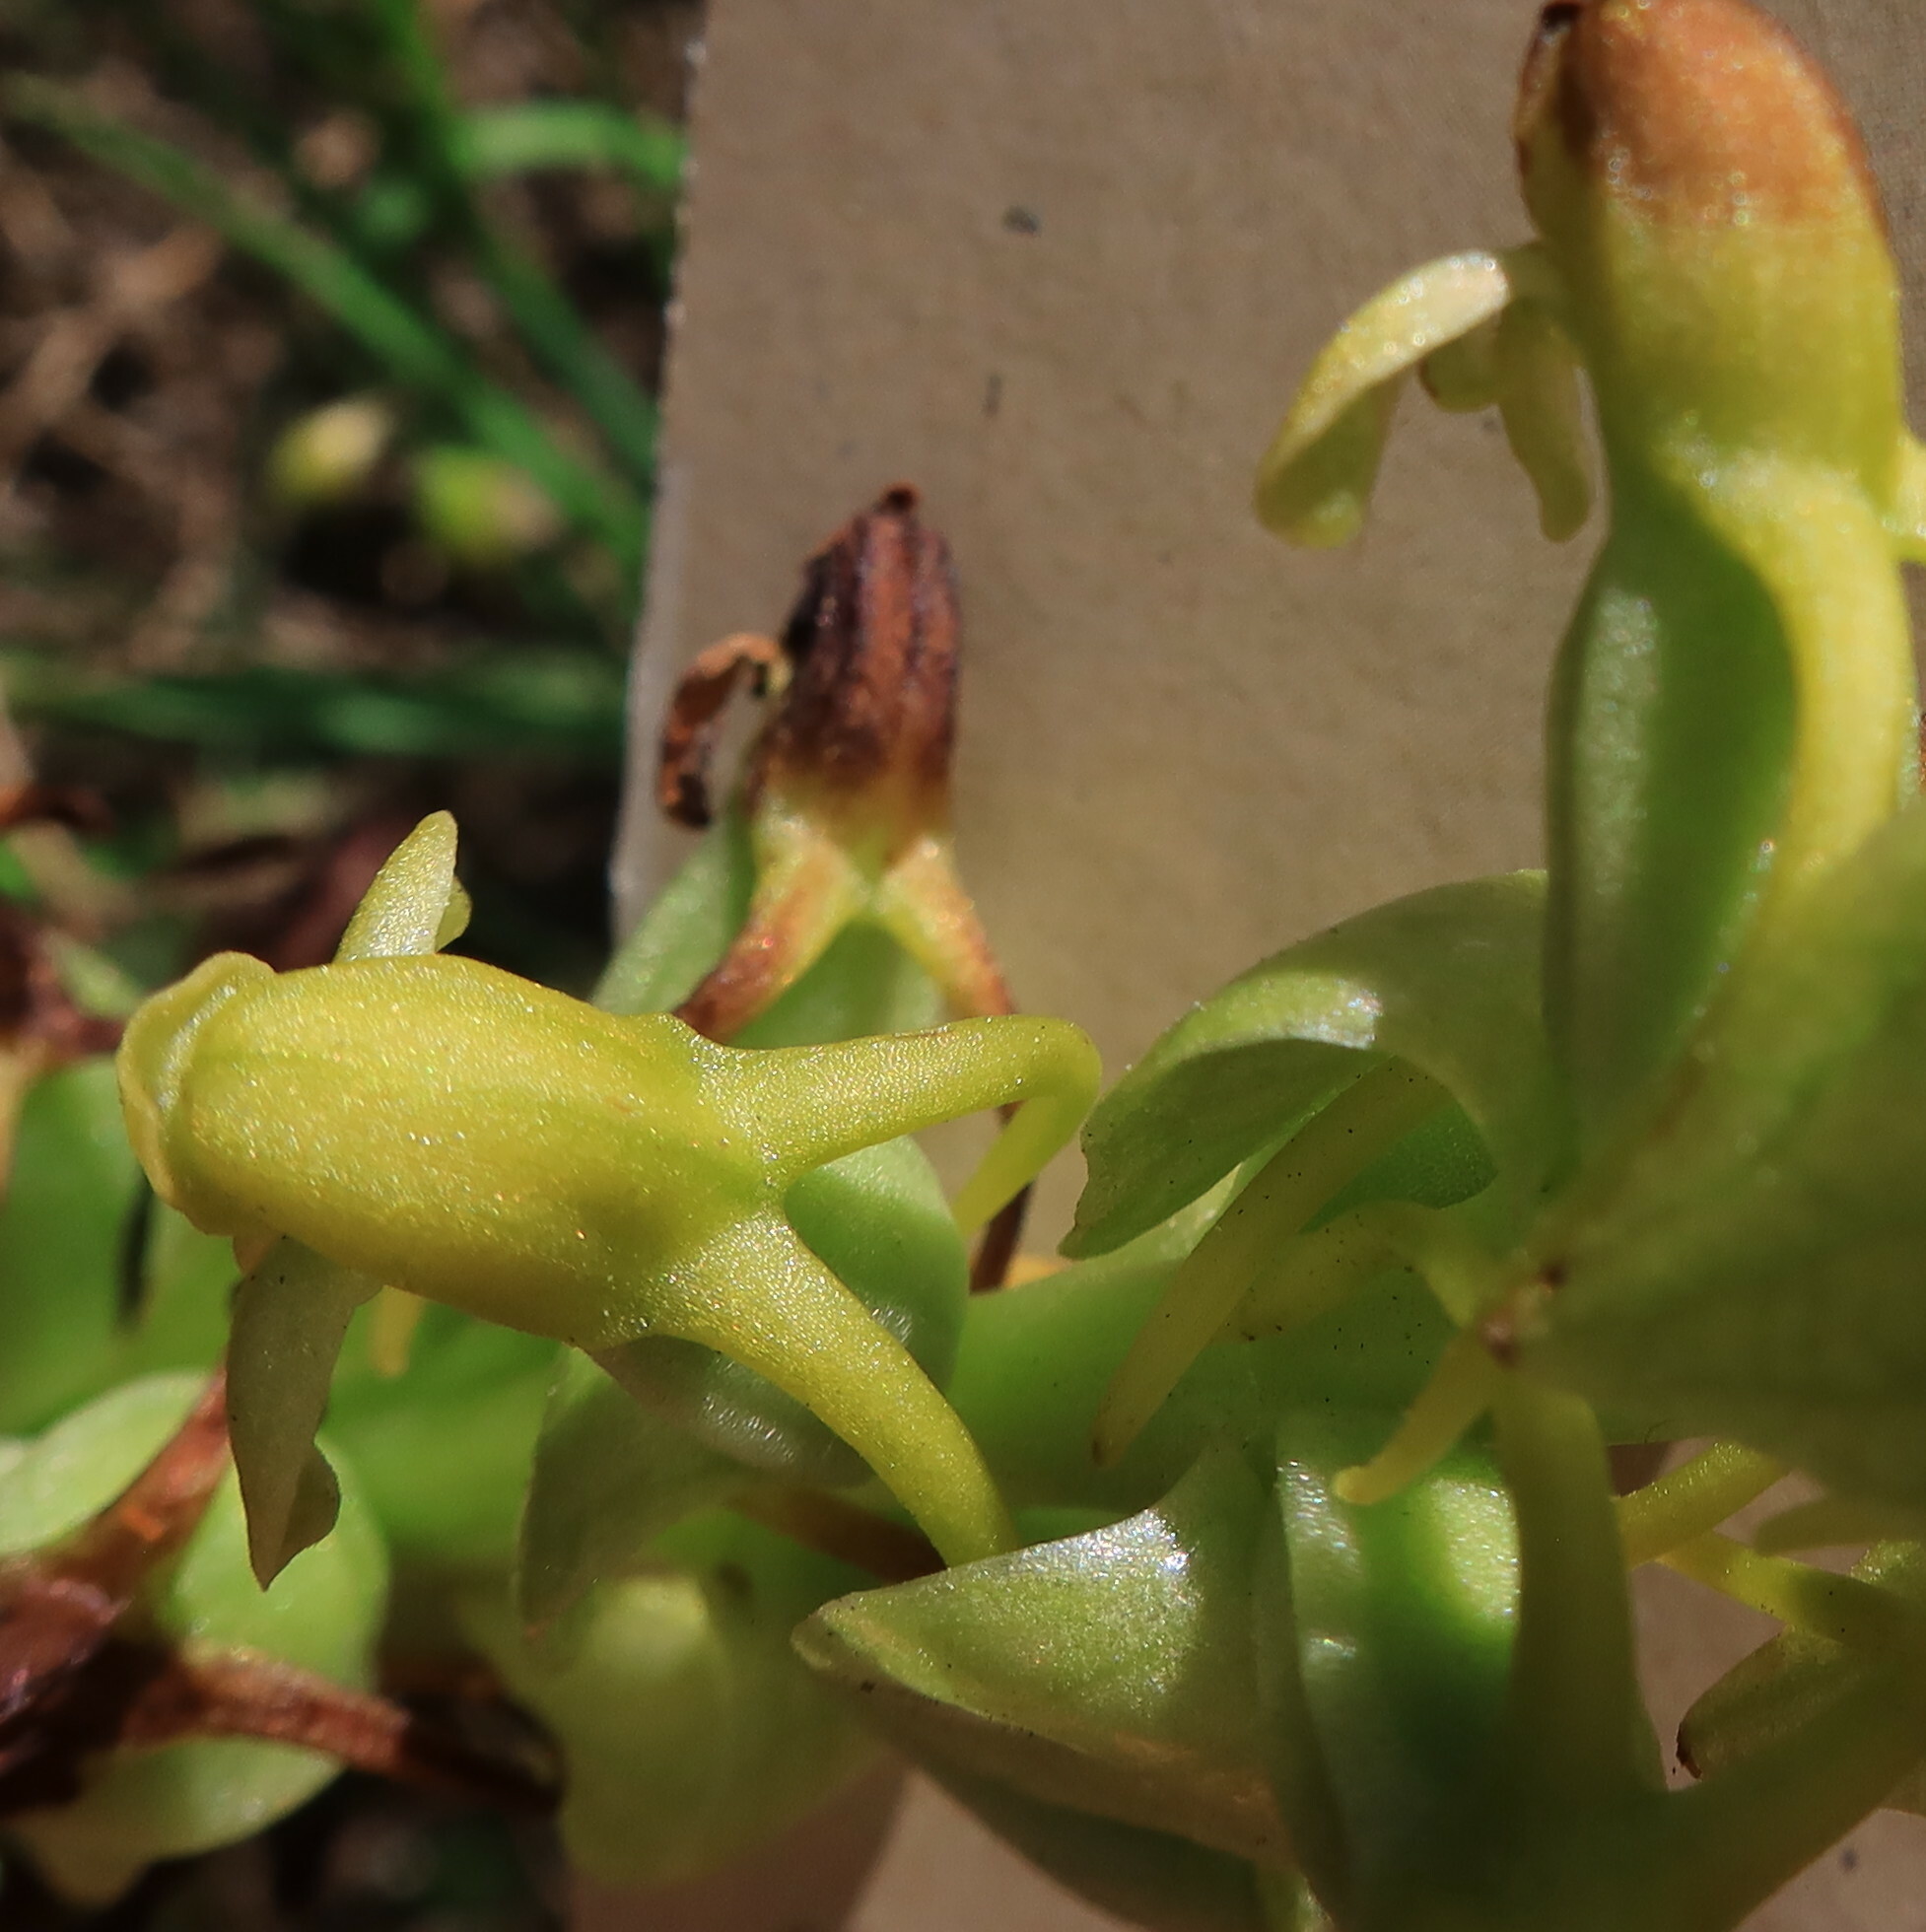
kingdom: Plantae
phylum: Tracheophyta
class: Liliopsida
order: Asparagales
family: Orchidaceae
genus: Satyrium
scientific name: Satyrium odorum
